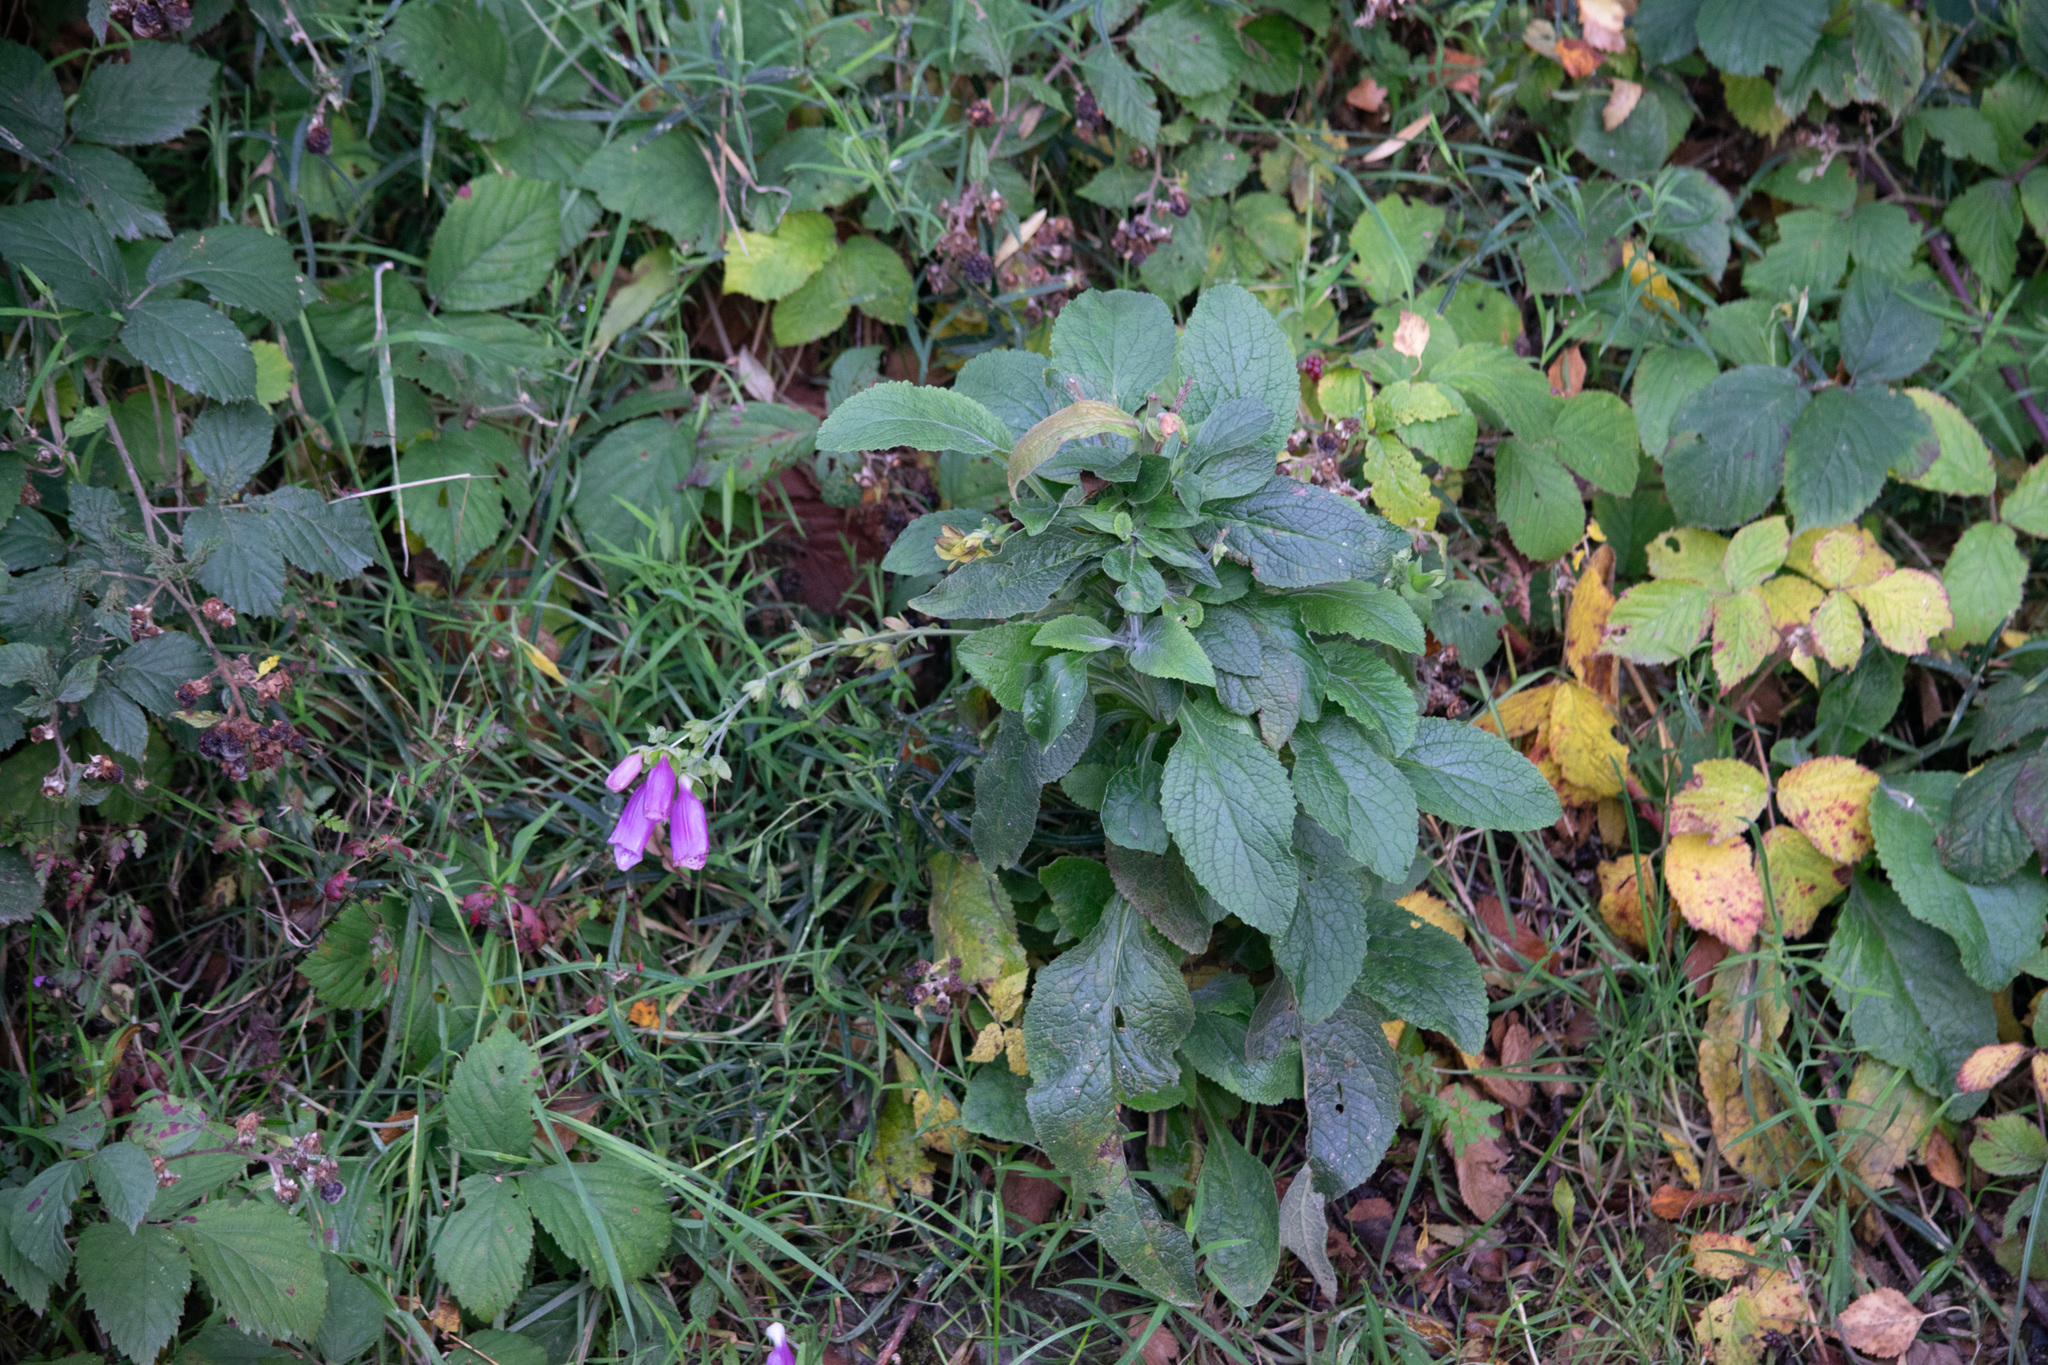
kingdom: Plantae
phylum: Tracheophyta
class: Magnoliopsida
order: Lamiales
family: Plantaginaceae
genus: Digitalis
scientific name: Digitalis purpurea
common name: Foxglove
